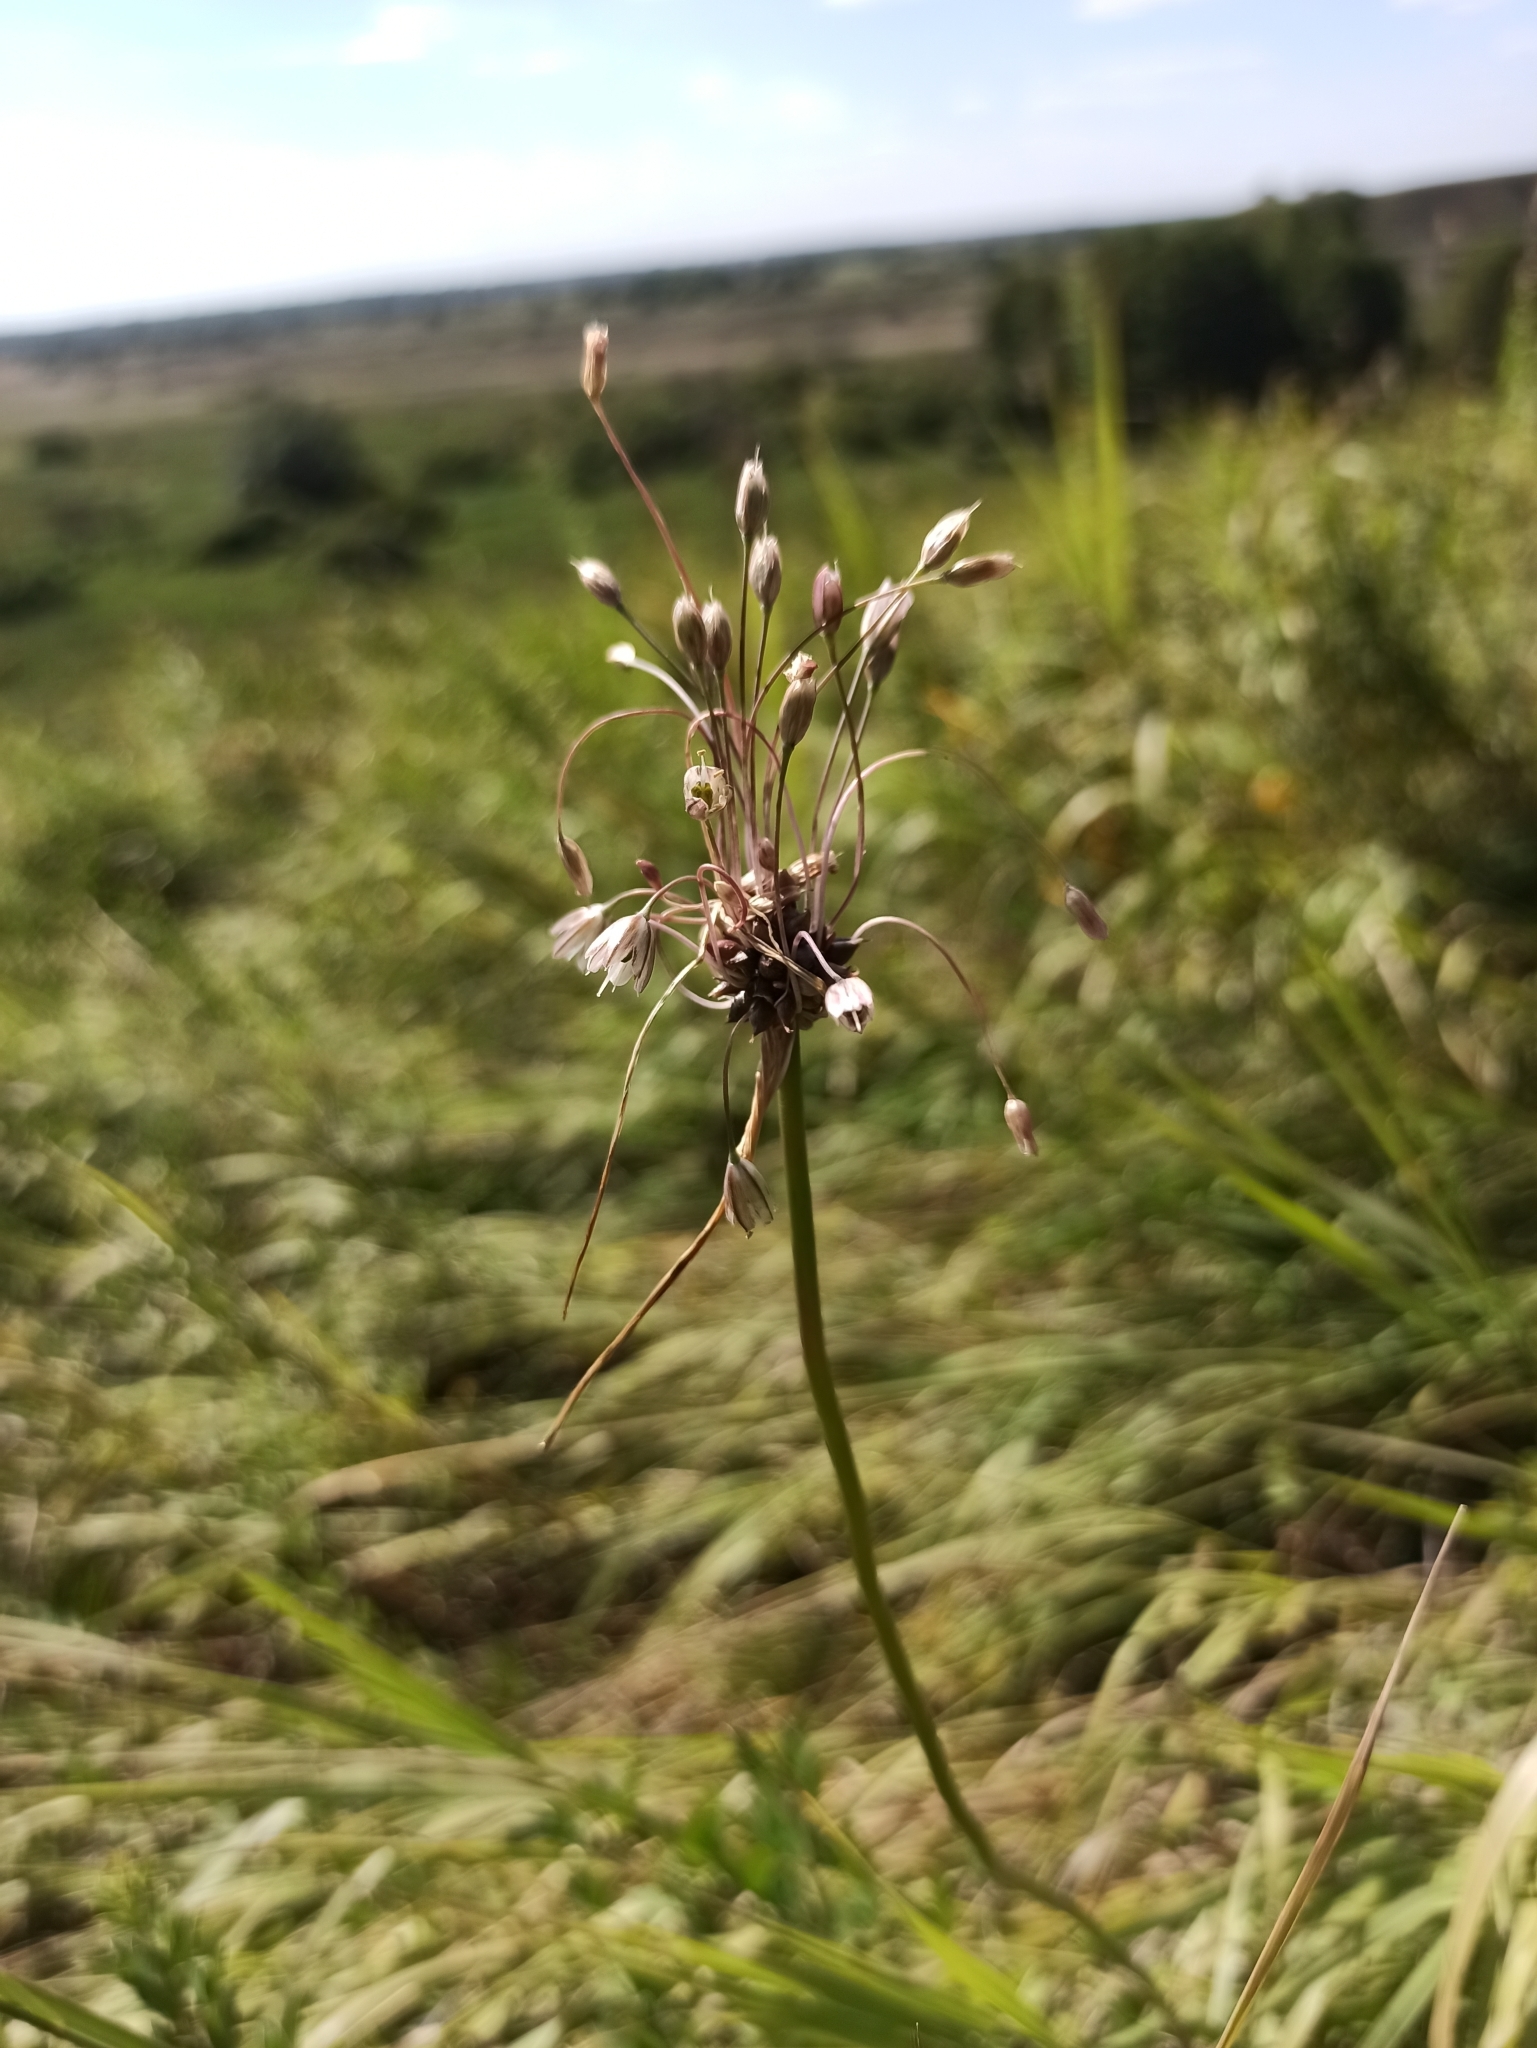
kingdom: Plantae
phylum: Tracheophyta
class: Liliopsida
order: Asparagales
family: Amaryllidaceae
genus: Allium
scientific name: Allium oleraceum
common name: Field garlic
